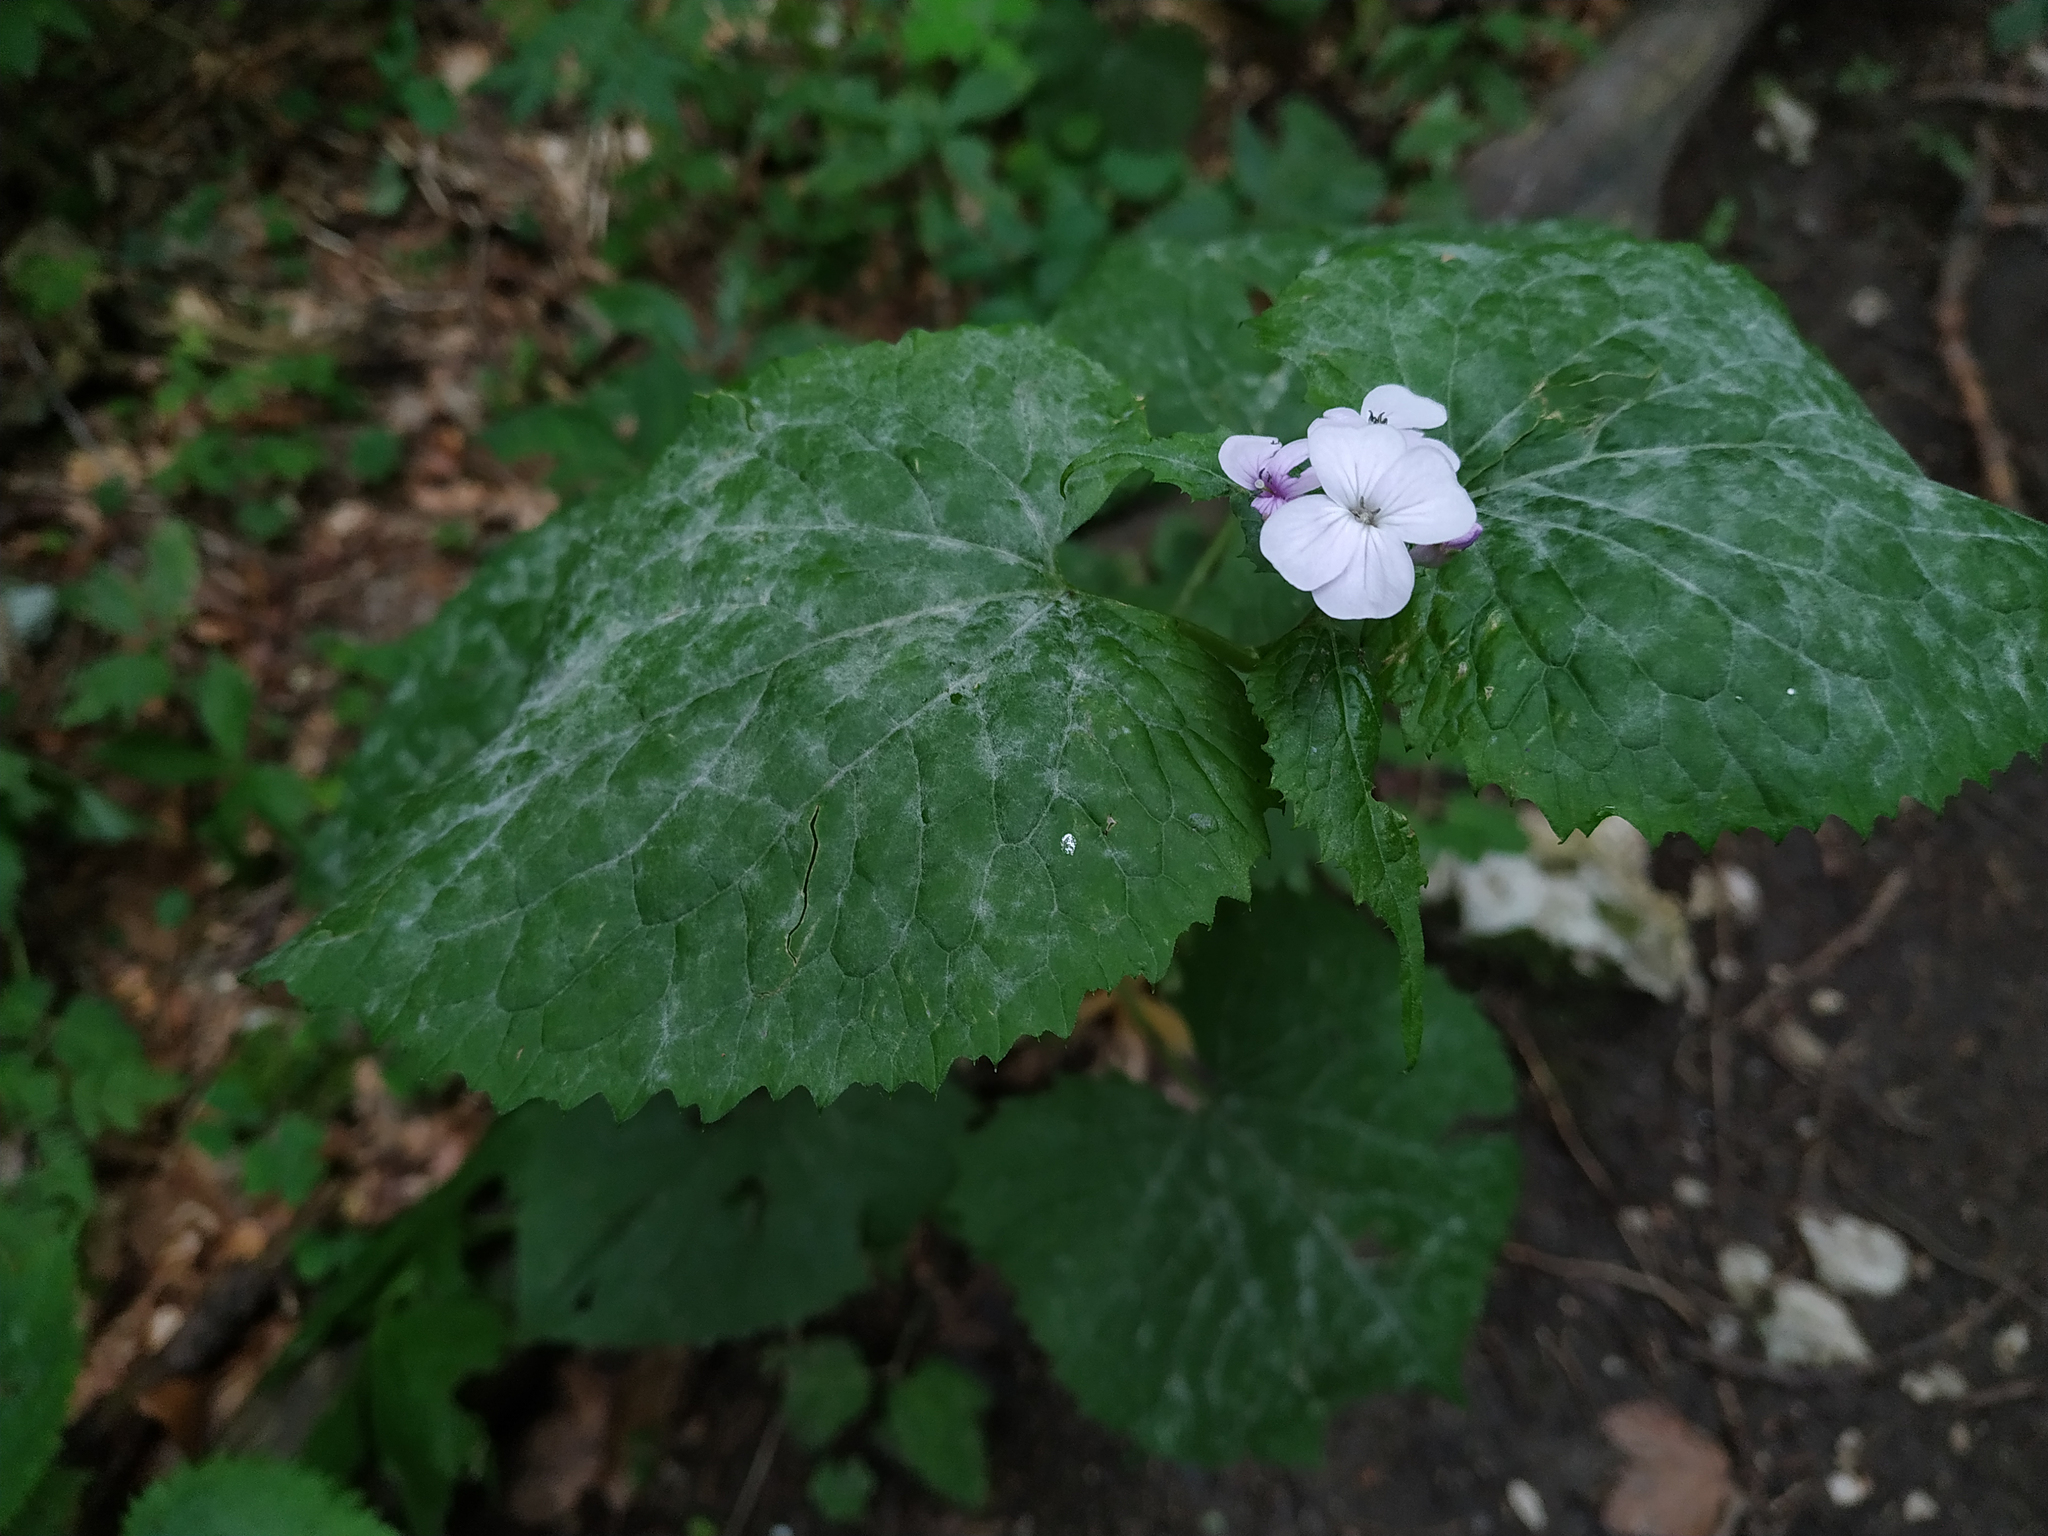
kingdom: Plantae
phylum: Tracheophyta
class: Magnoliopsida
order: Brassicales
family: Brassicaceae
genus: Lunaria
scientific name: Lunaria rediviva
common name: Perennial honesty
